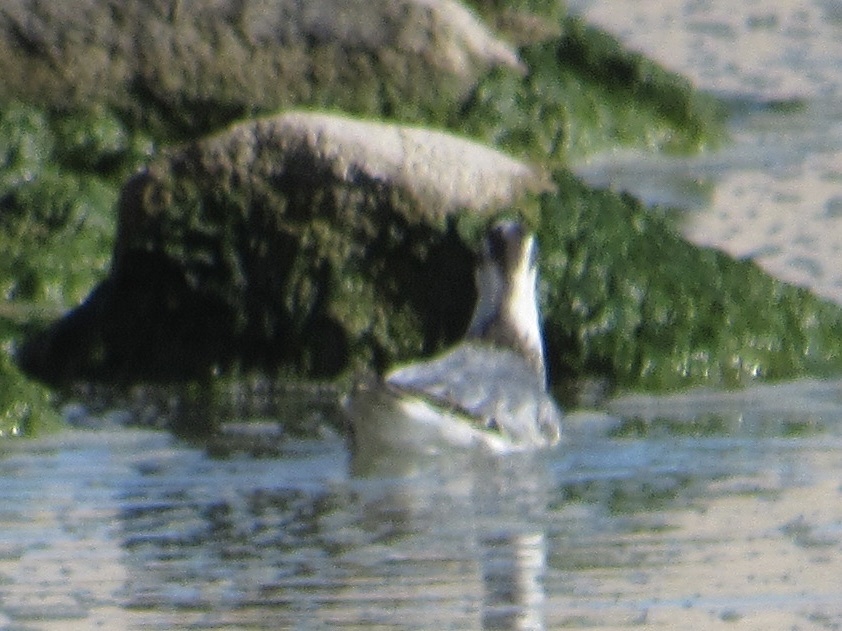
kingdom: Animalia
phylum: Chordata
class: Aves
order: Charadriiformes
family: Scolopacidae
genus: Phalaropus
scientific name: Phalaropus fulicarius
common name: Red phalarope
